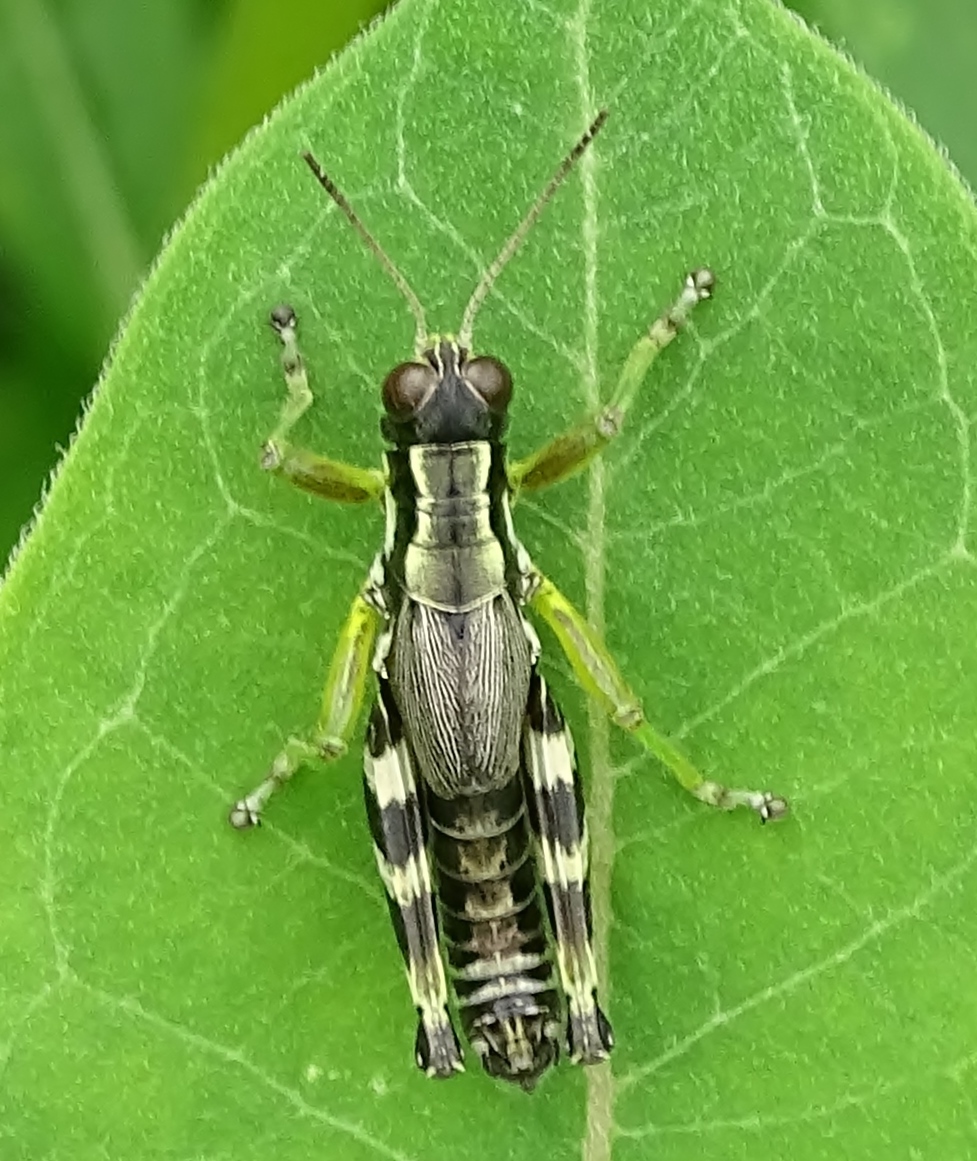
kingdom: Animalia
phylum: Arthropoda
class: Insecta
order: Orthoptera
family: Acrididae
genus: Melanoplus
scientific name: Melanoplus viridipes
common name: Green-legged locust
